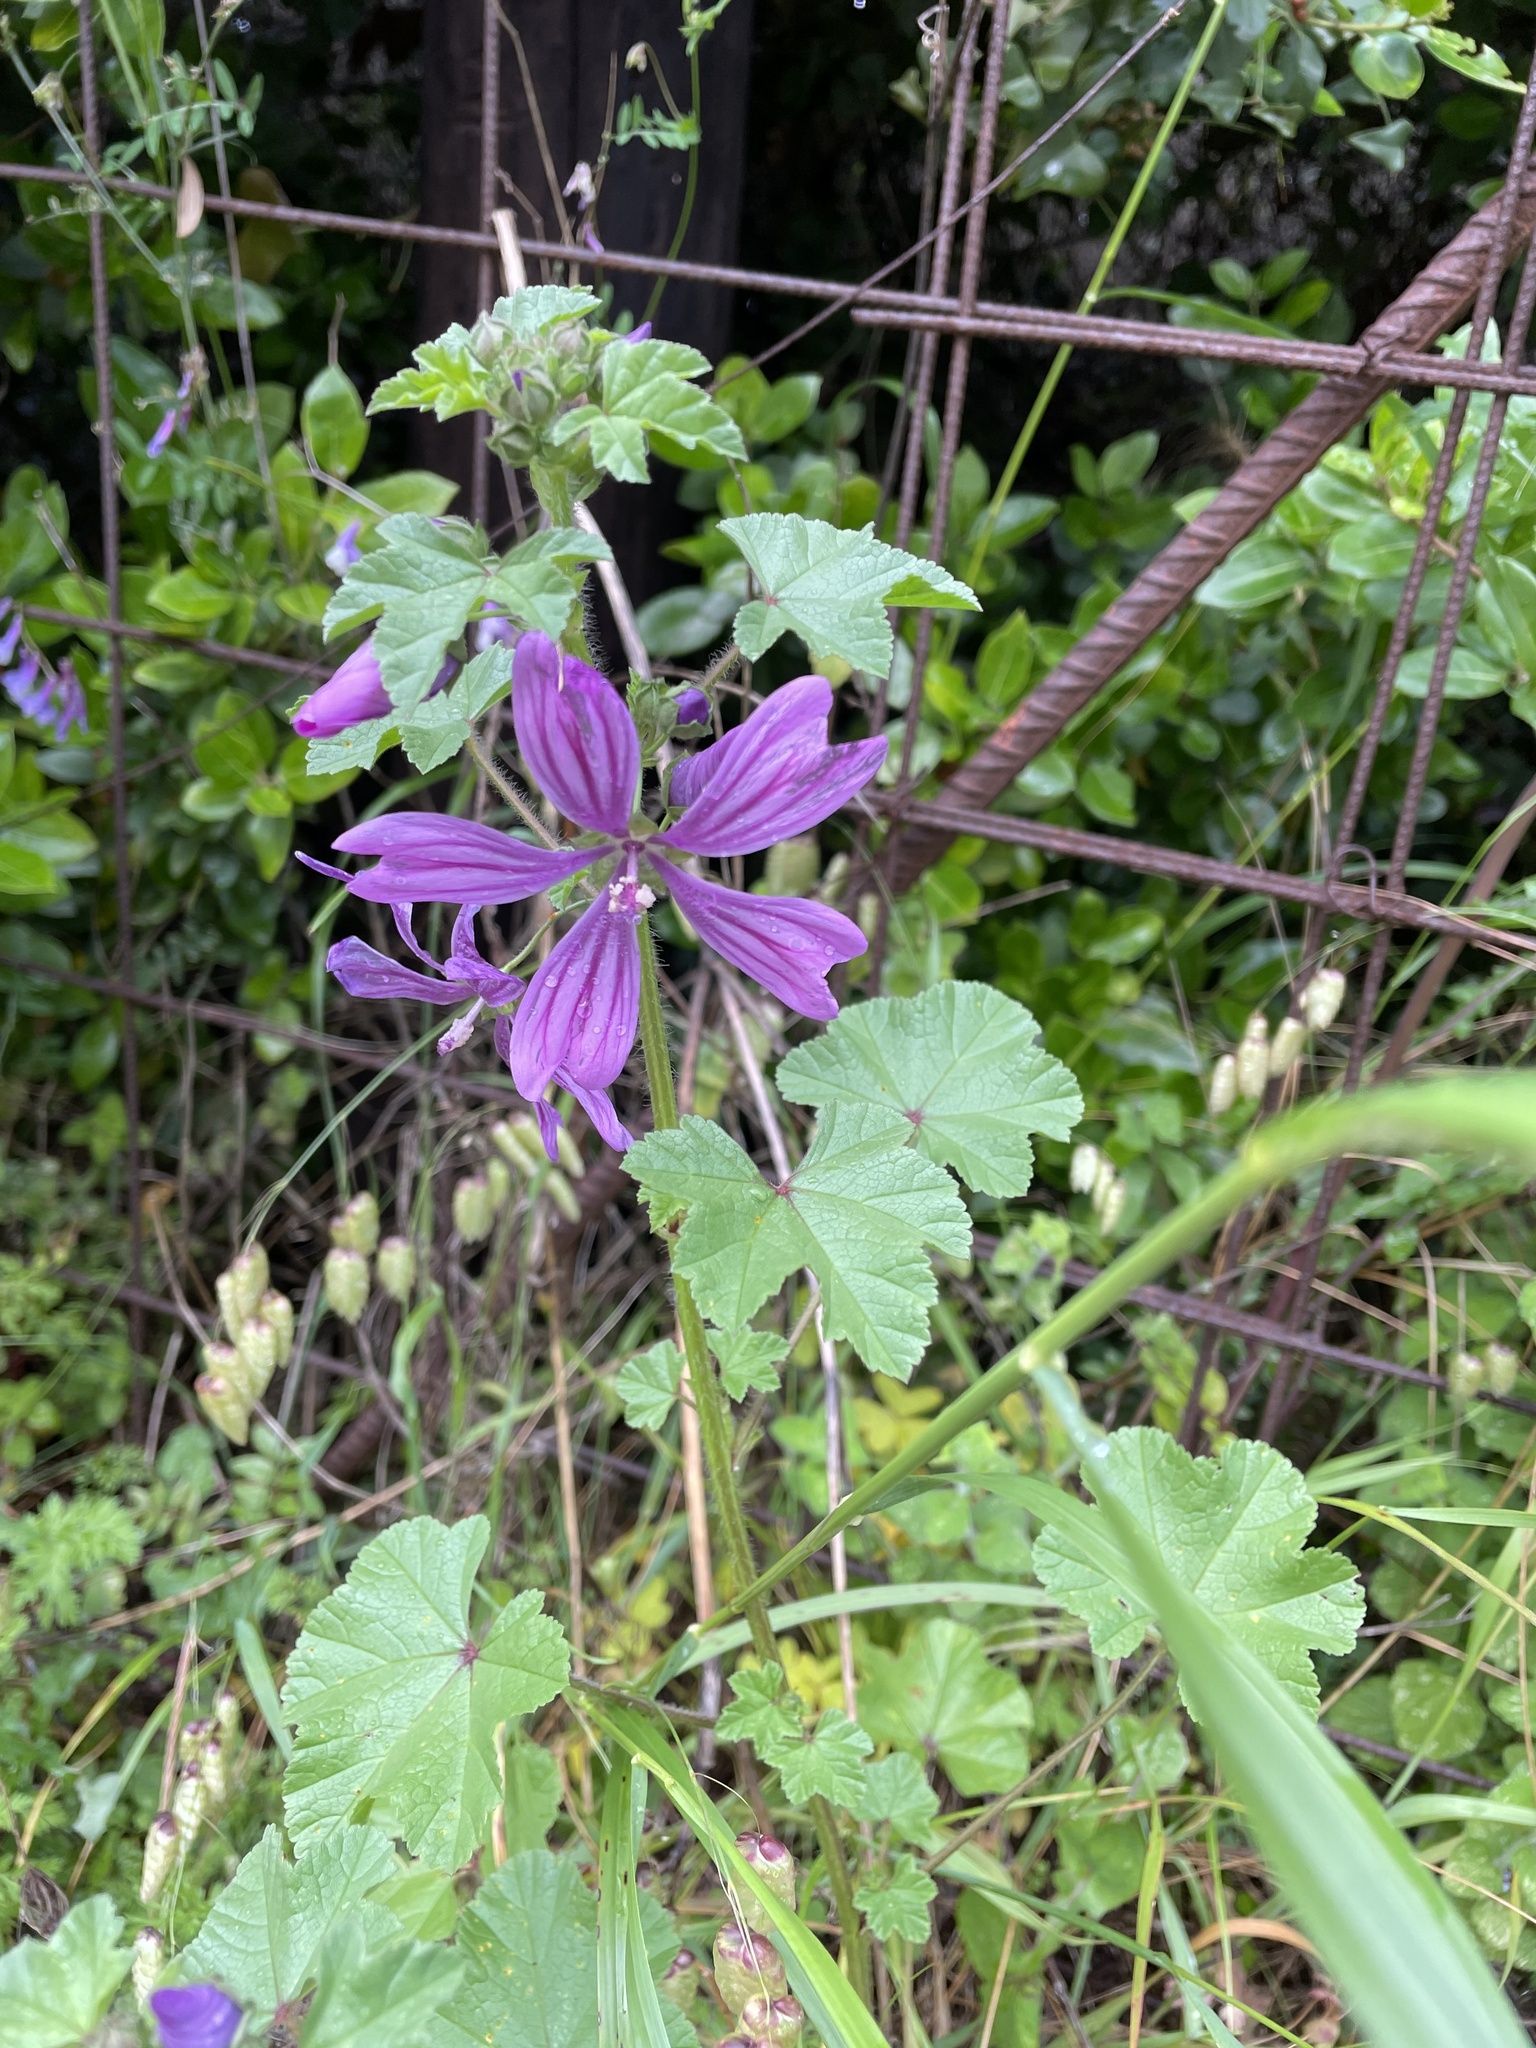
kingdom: Plantae
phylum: Tracheophyta
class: Magnoliopsida
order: Malvales
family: Malvaceae
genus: Malva
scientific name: Malva sylvestris
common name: Common mallow
